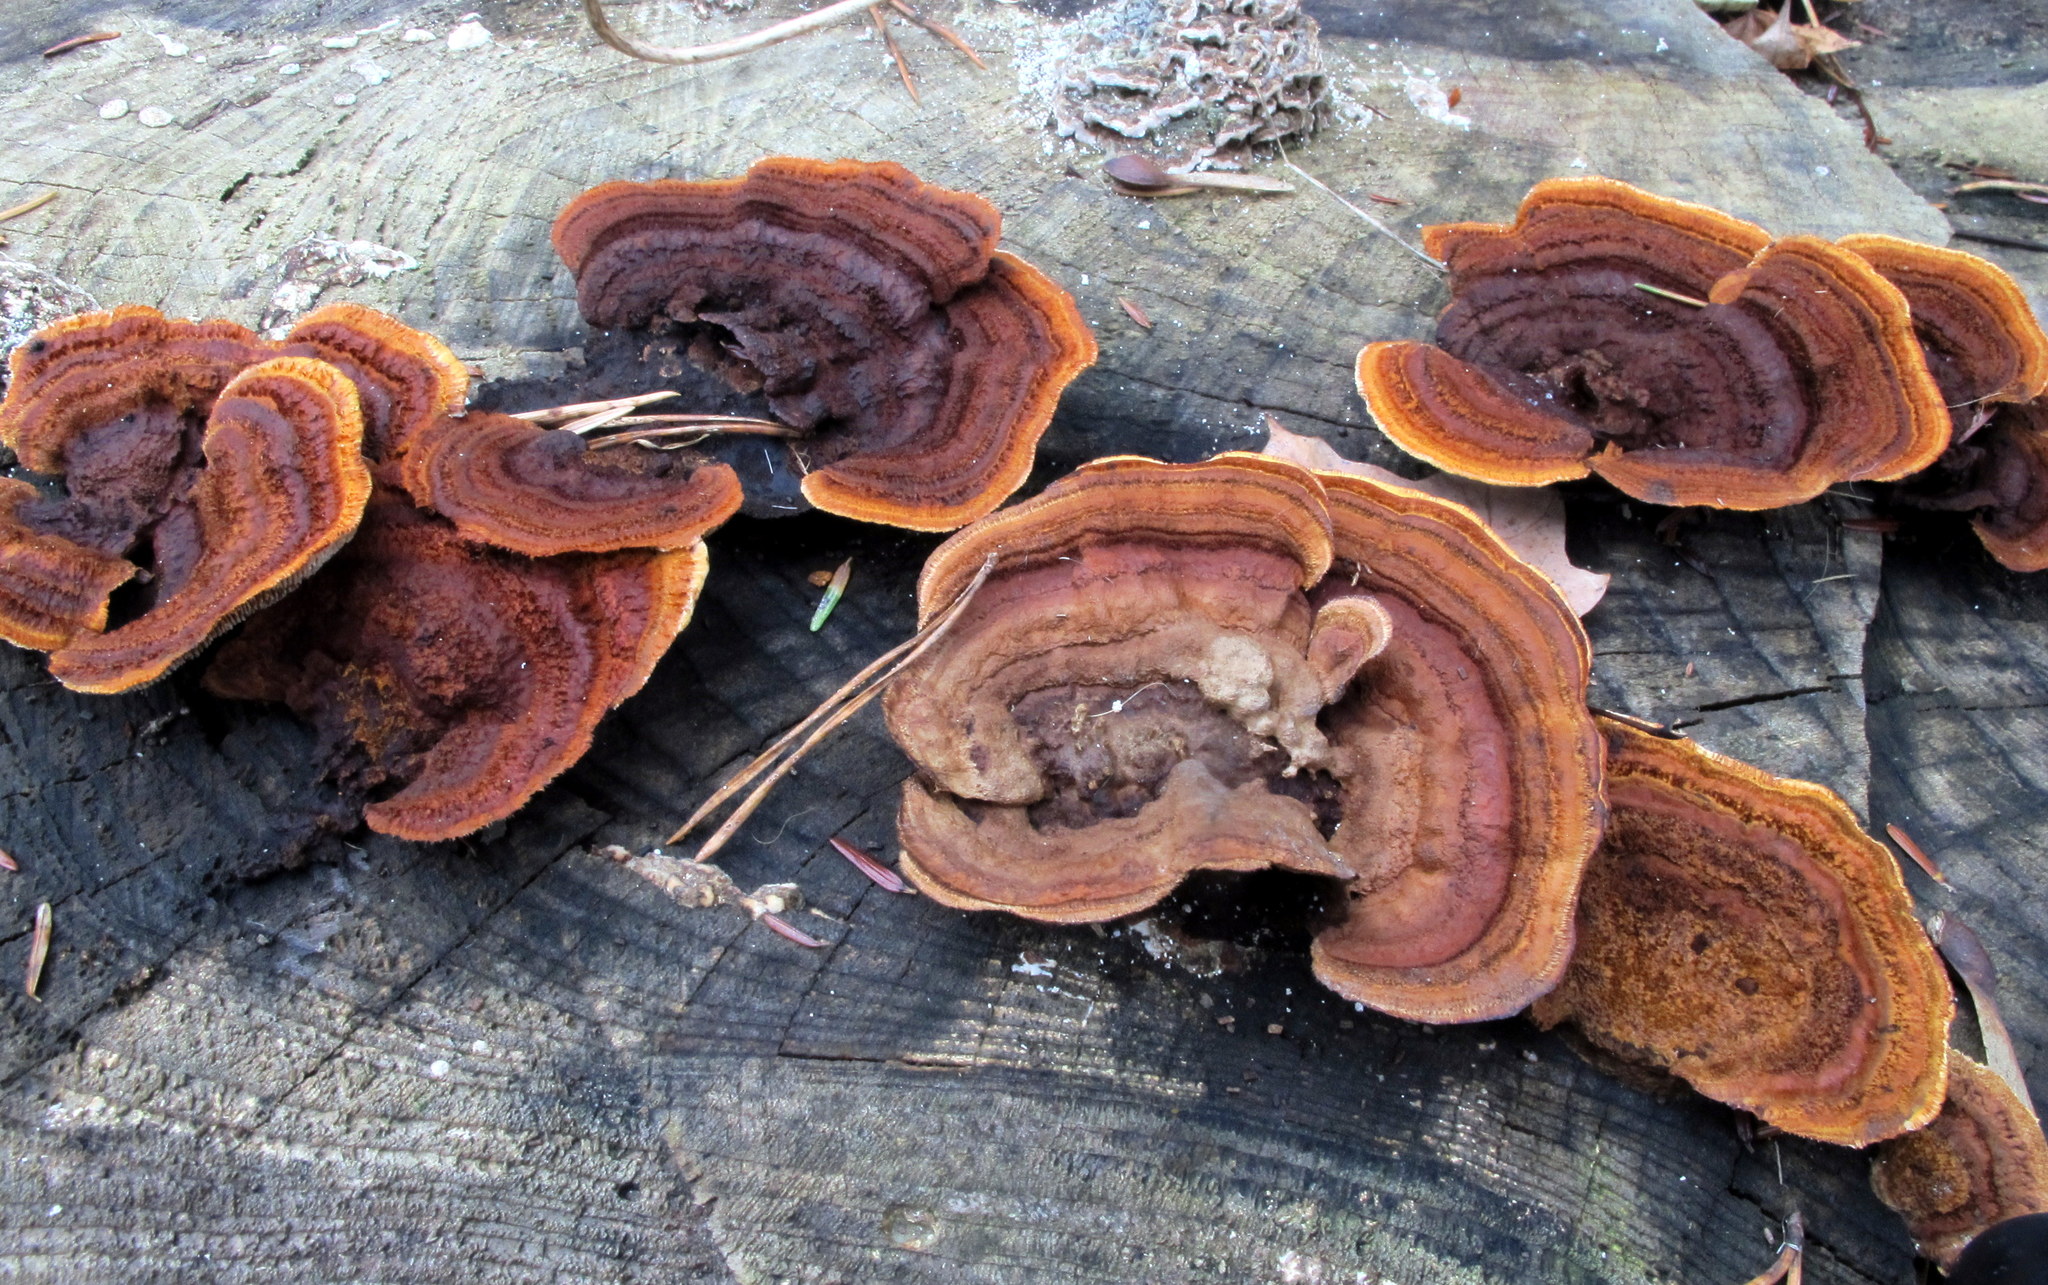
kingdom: Fungi
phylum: Basidiomycota
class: Agaricomycetes
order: Gloeophyllales
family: Gloeophyllaceae
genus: Gloeophyllum
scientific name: Gloeophyllum sepiarium
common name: Conifer mazegill
